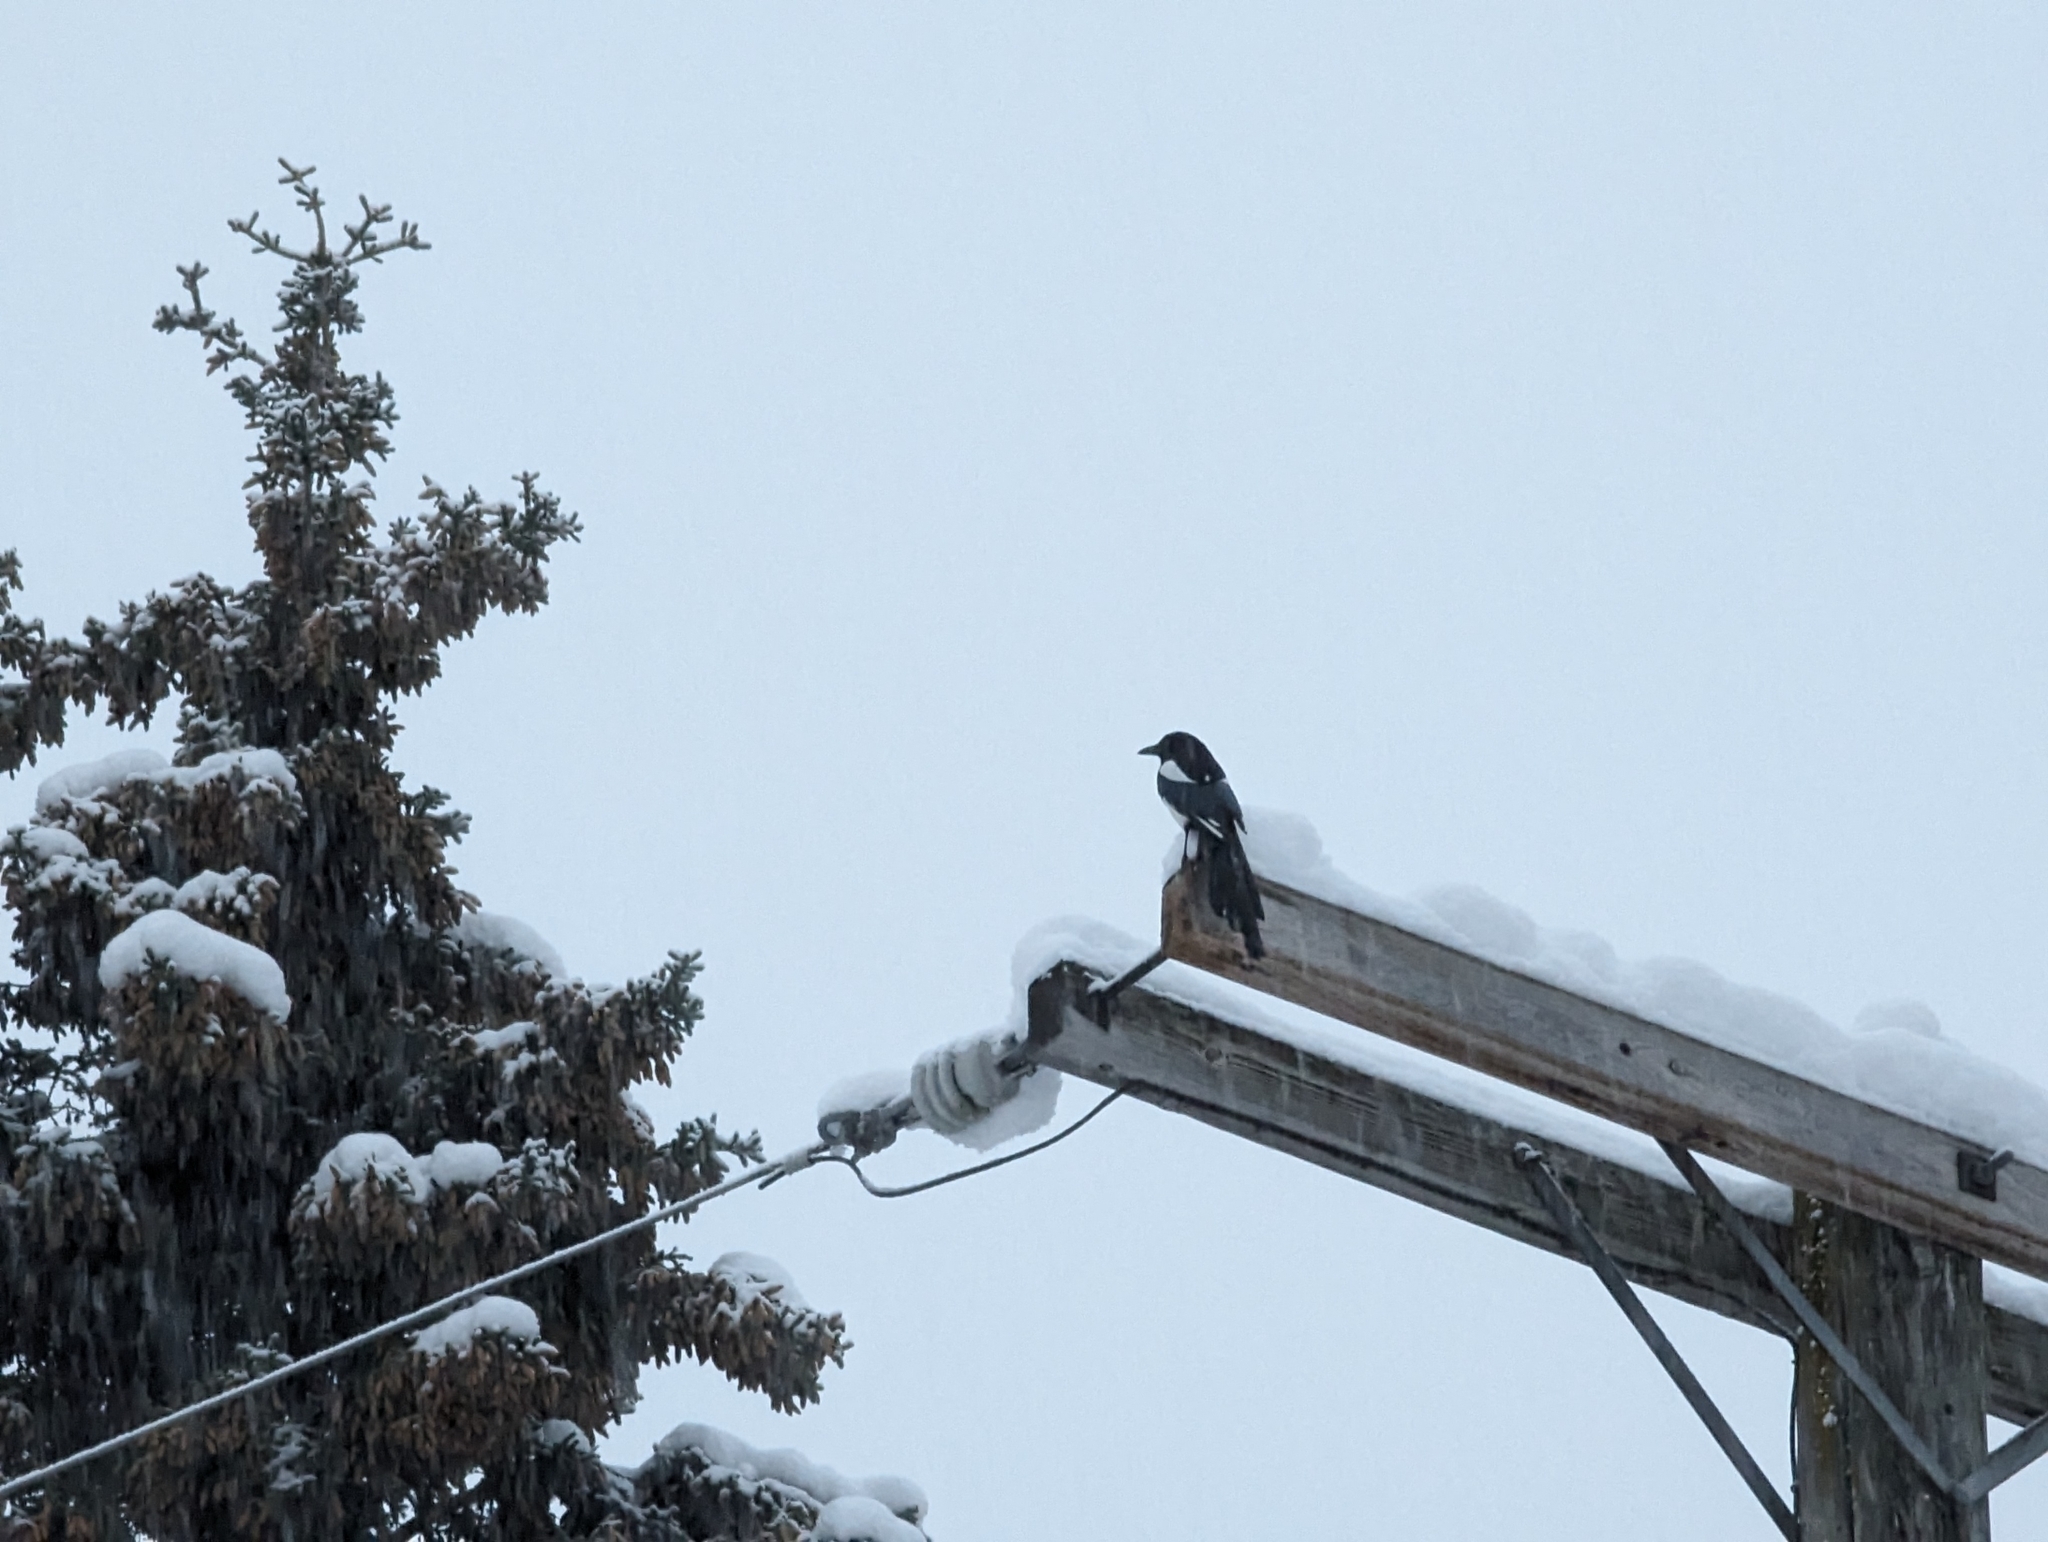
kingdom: Animalia
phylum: Chordata
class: Aves
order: Passeriformes
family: Corvidae
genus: Pica
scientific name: Pica hudsonia
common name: Black-billed magpie
